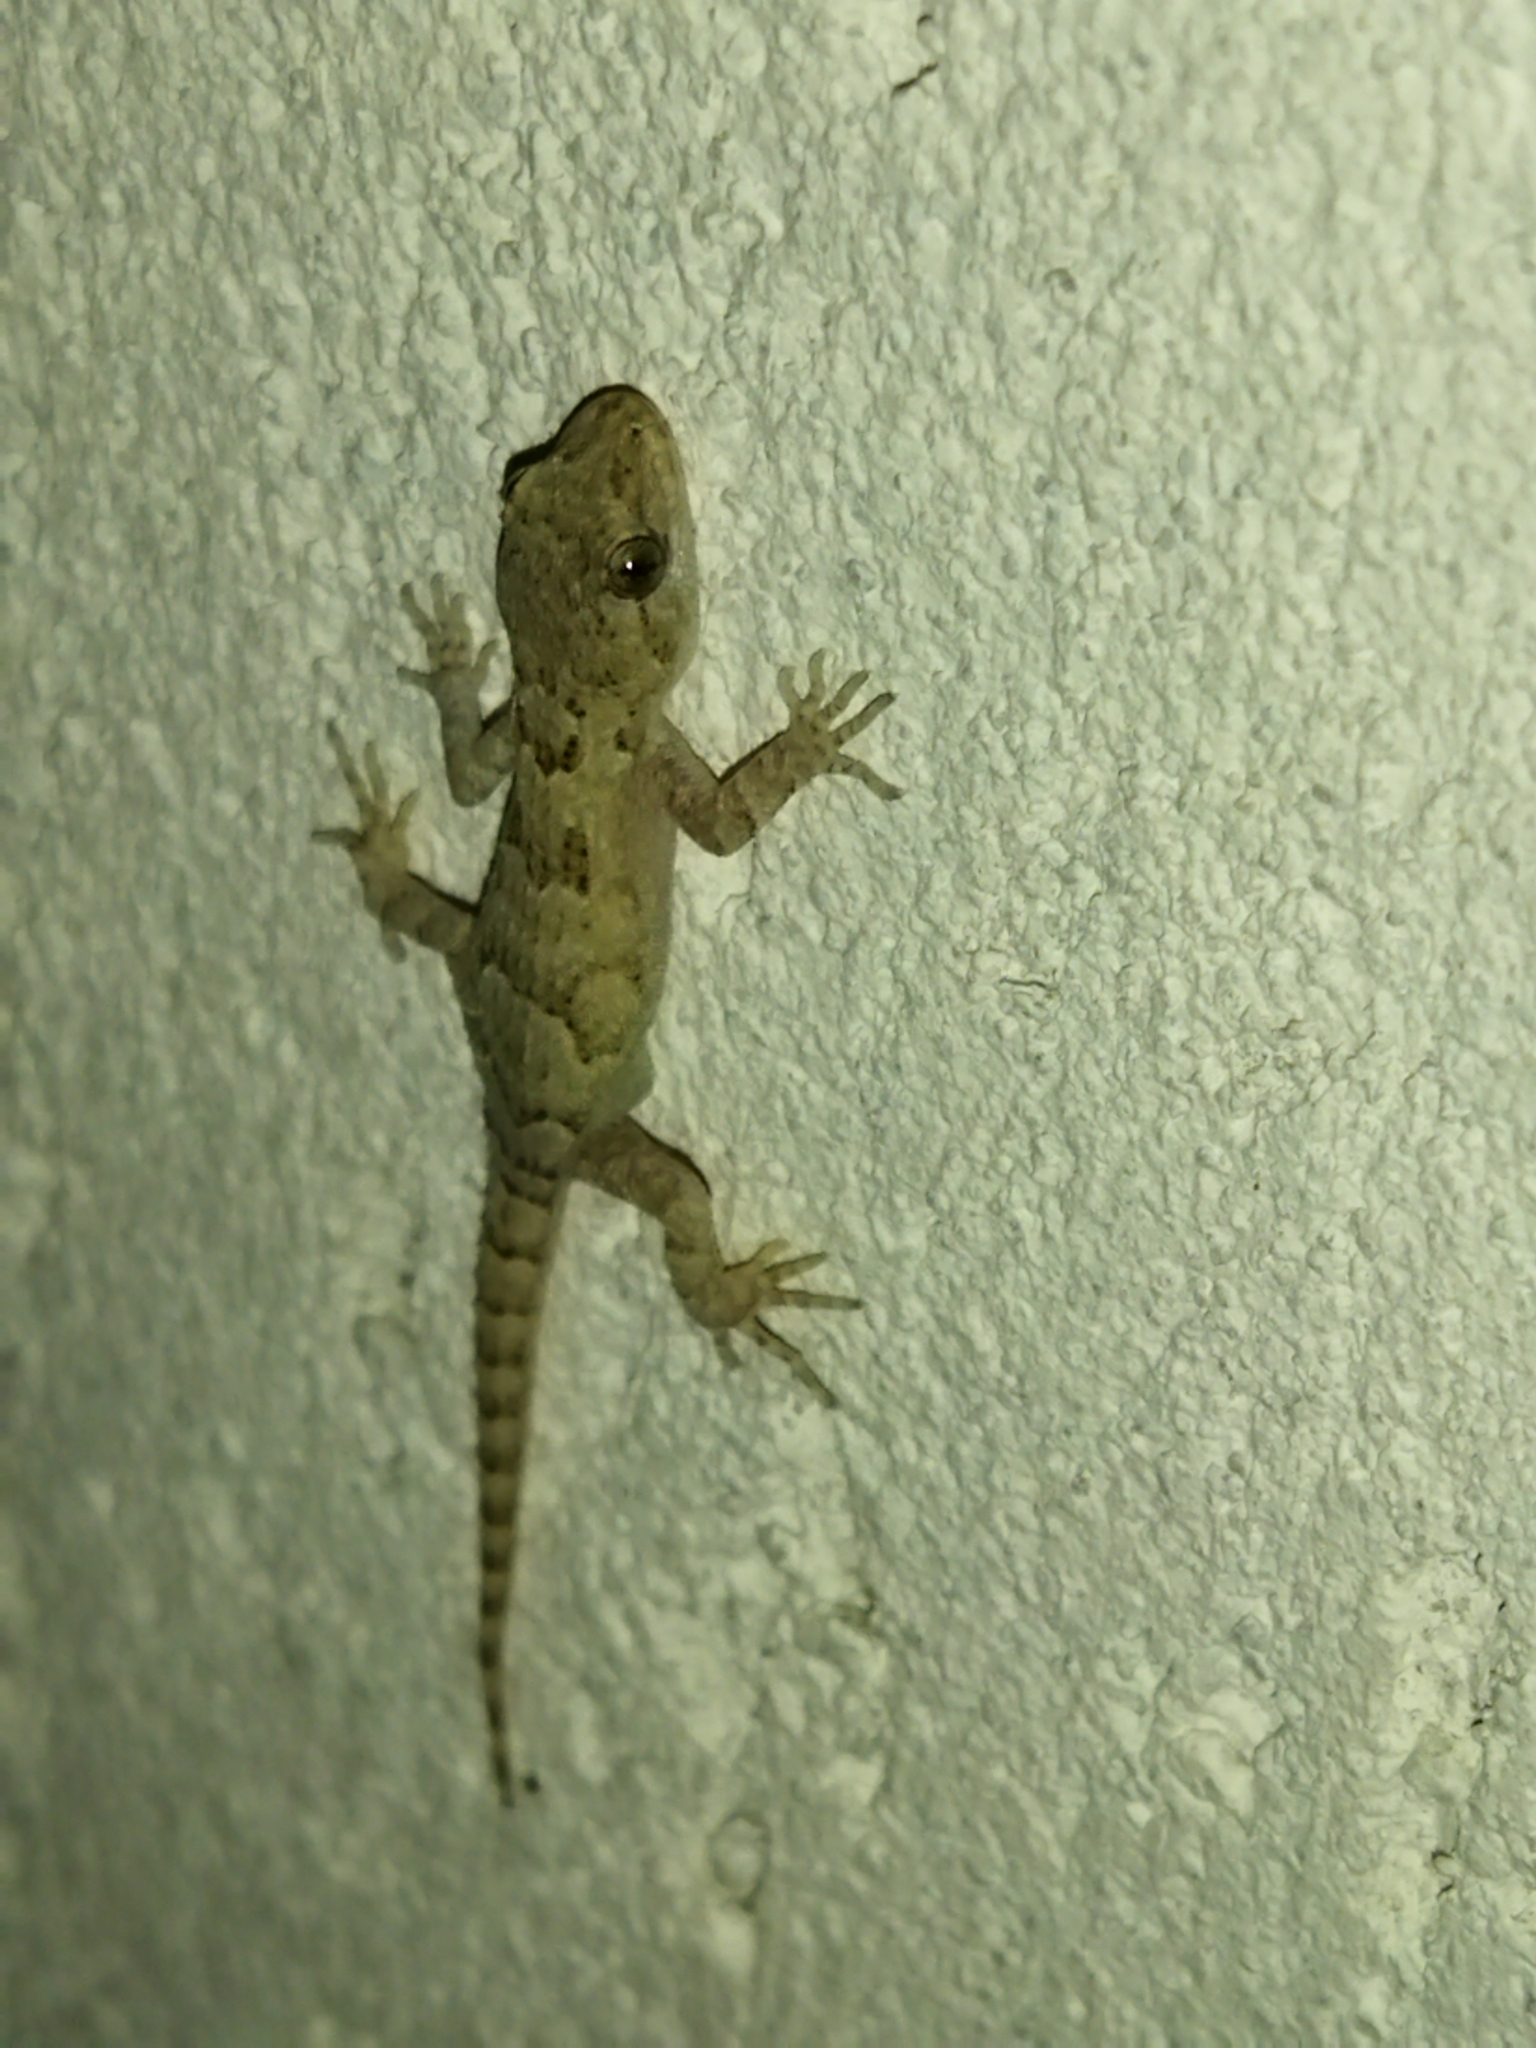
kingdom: Animalia
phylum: Chordata
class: Squamata
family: Gekkonidae
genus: Mediodactylus
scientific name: Mediodactylus kotschyi
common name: Kotschy's gecko
